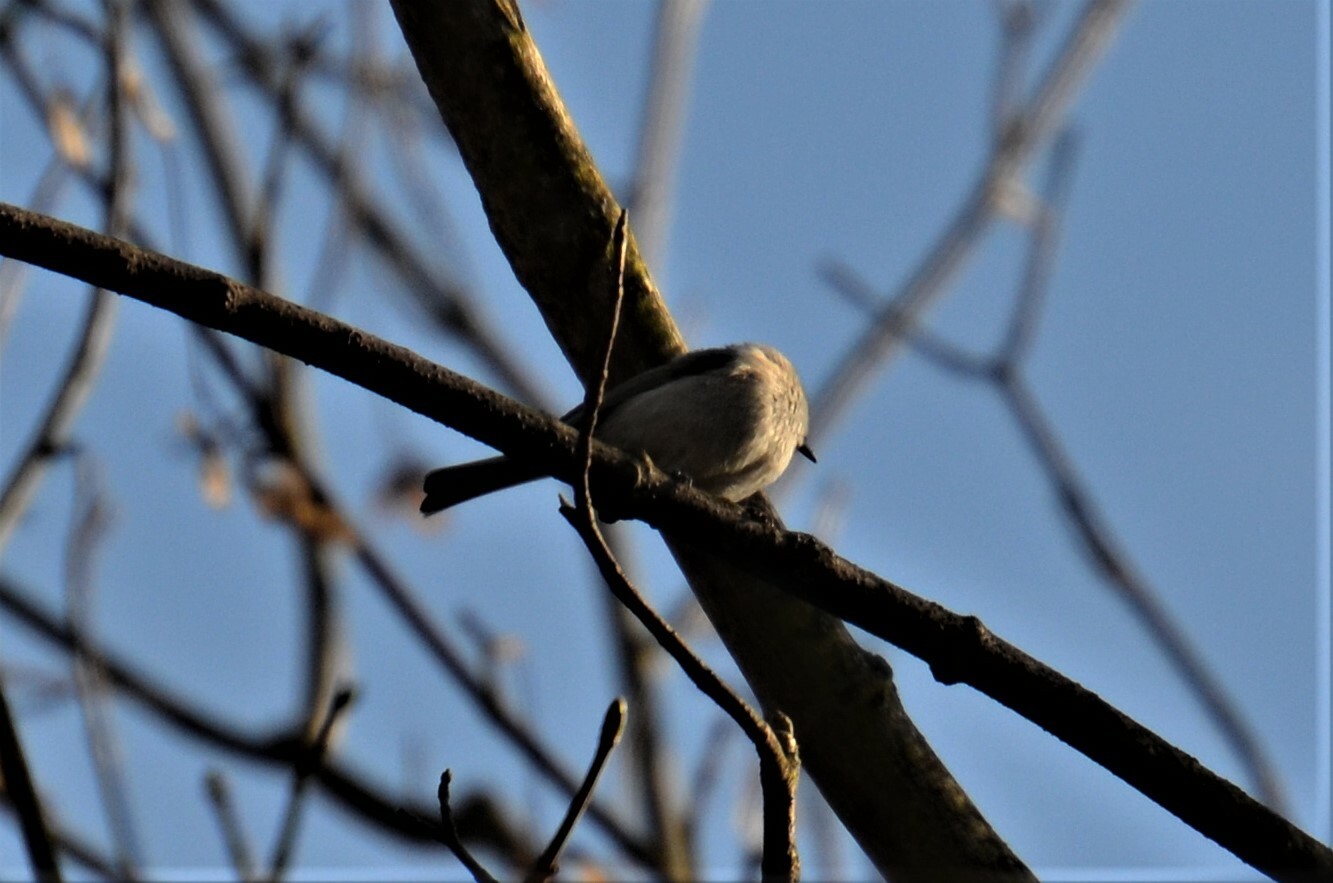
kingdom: Animalia
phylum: Chordata
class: Aves
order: Passeriformes
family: Paridae
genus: Poecile
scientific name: Poecile palustris
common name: Marsh tit
